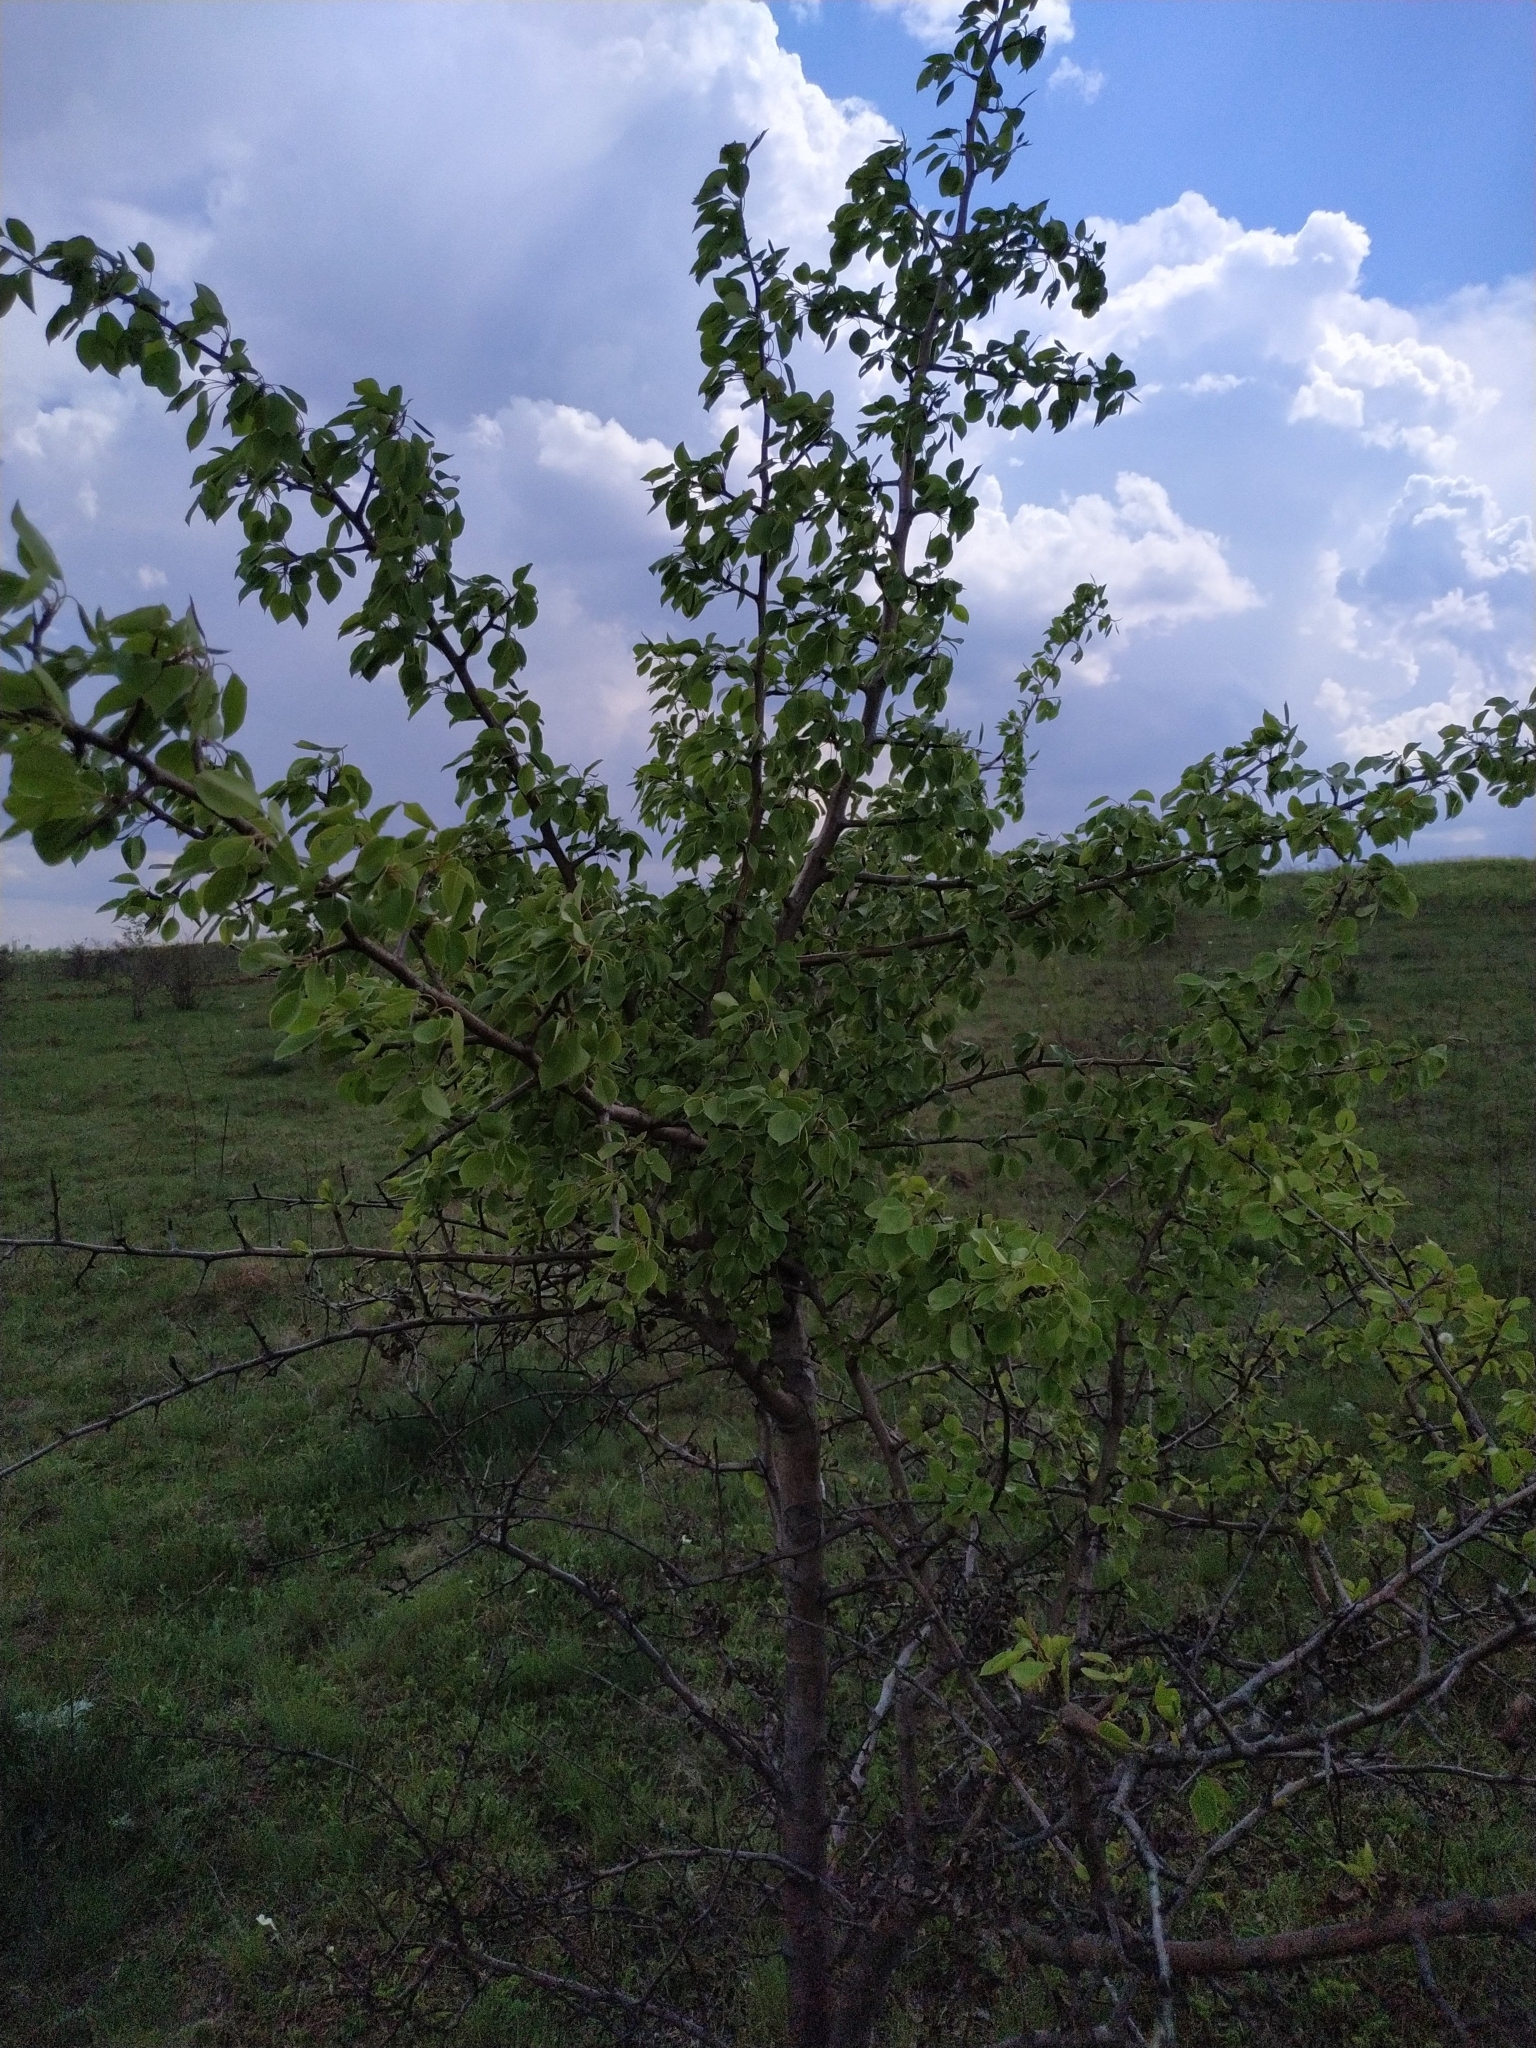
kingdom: Plantae
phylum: Tracheophyta
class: Magnoliopsida
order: Rosales
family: Rosaceae
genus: Pyrus
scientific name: Pyrus communis
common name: Pear
